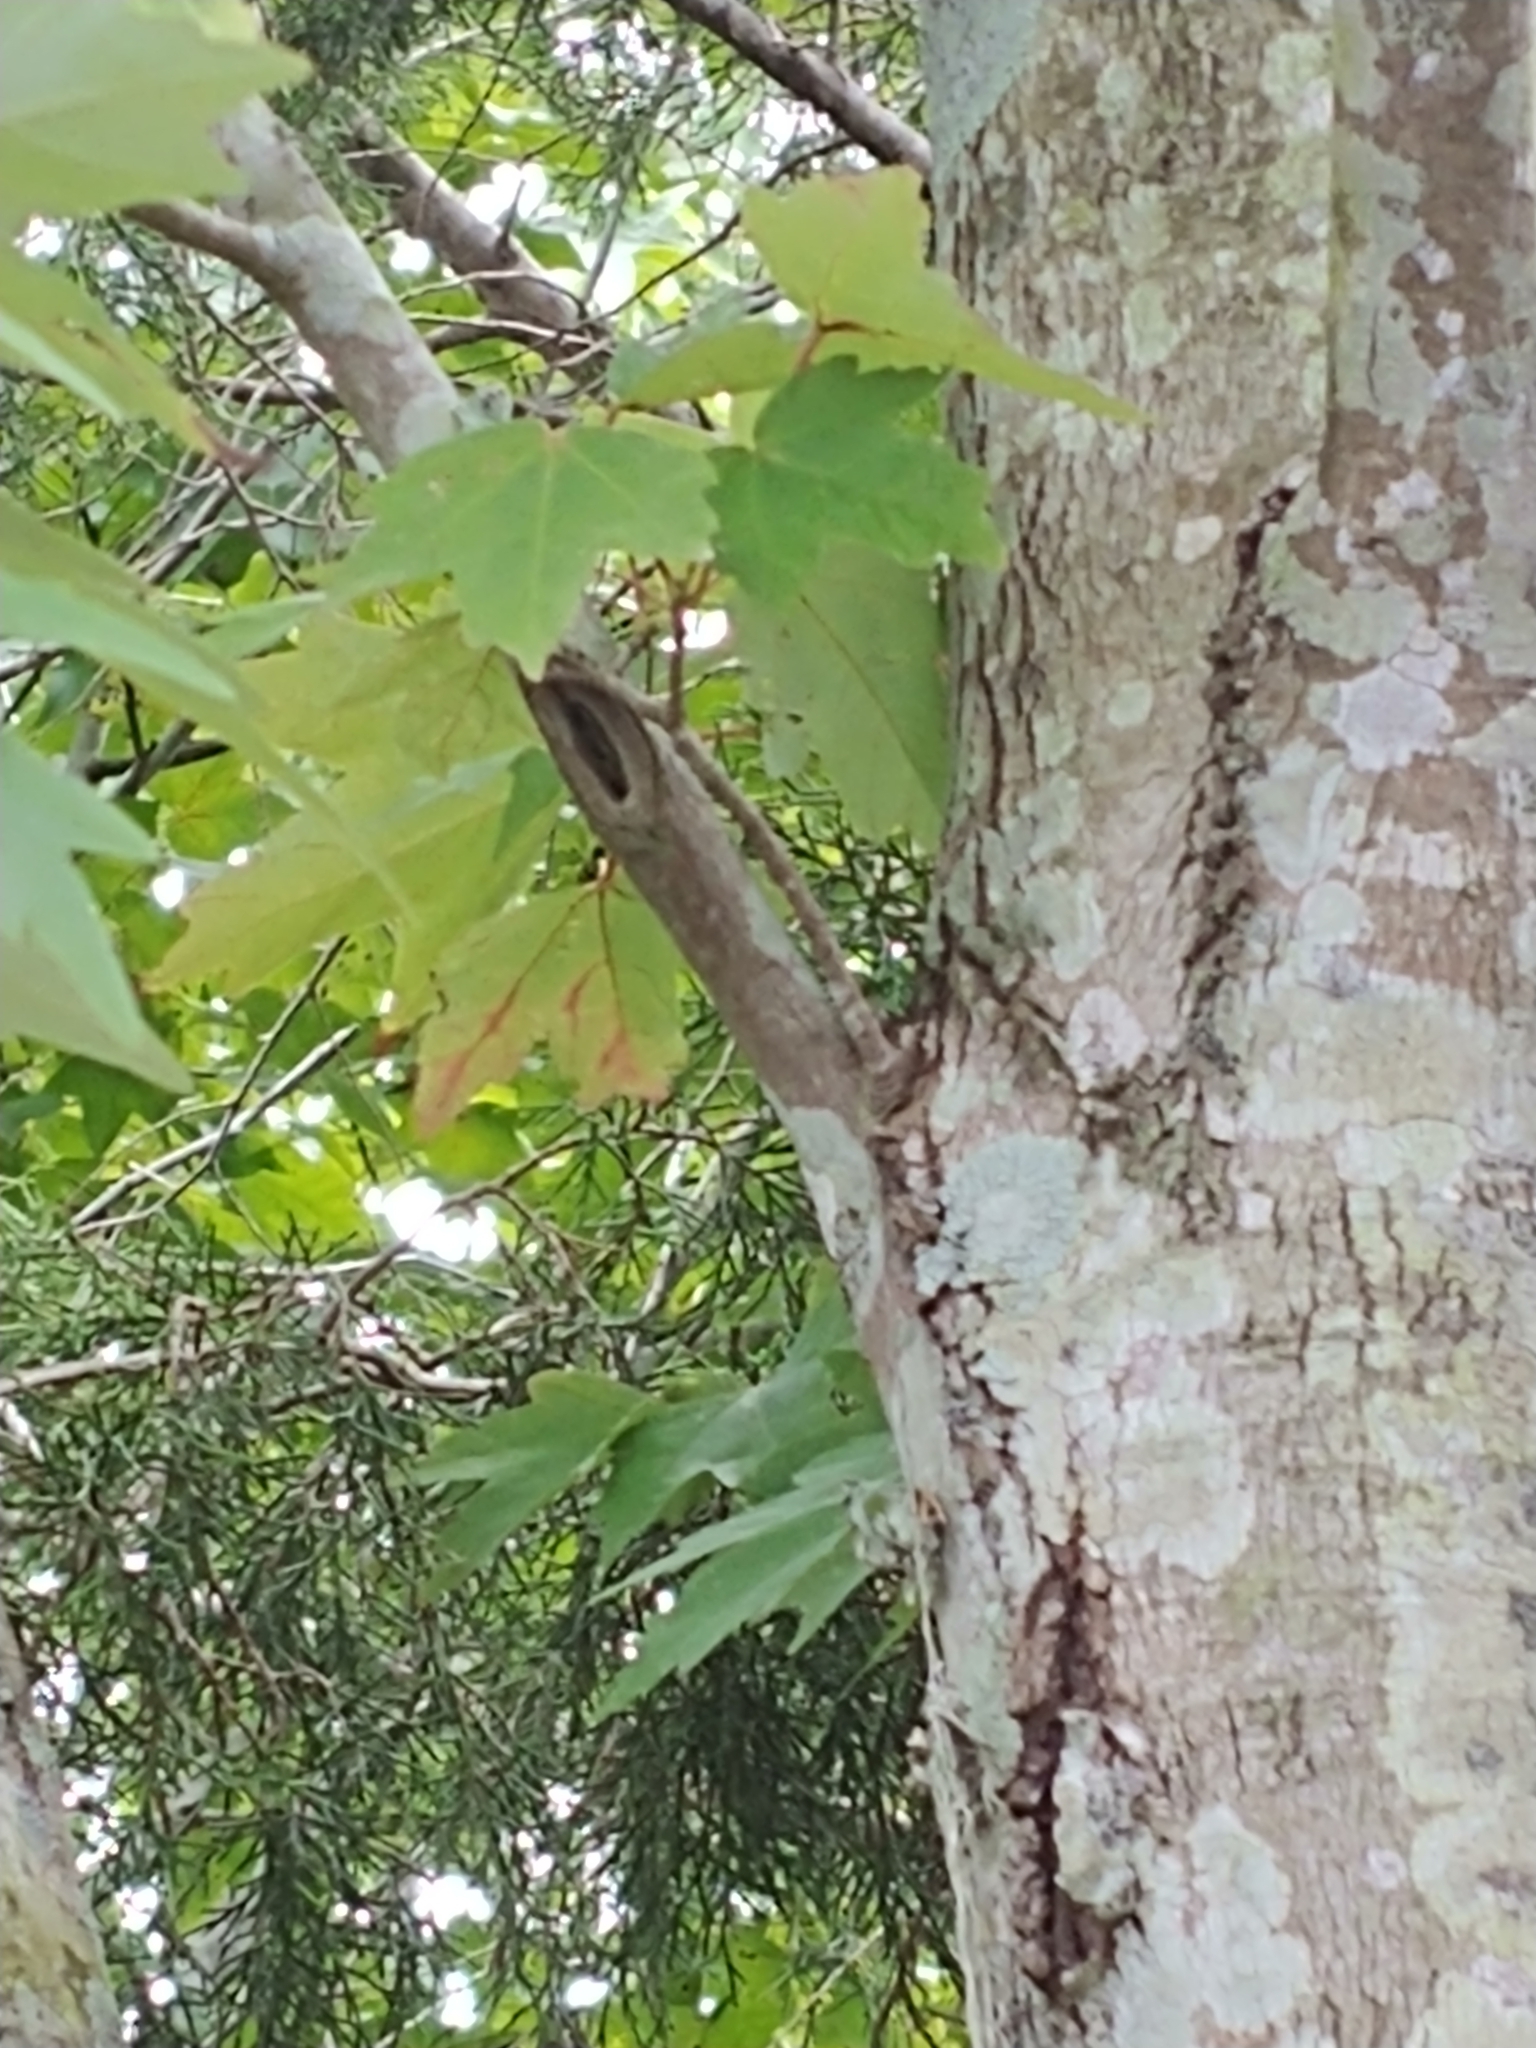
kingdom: Plantae
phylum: Tracheophyta
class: Magnoliopsida
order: Sapindales
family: Sapindaceae
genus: Acer
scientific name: Acer rubrum
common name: Red maple
